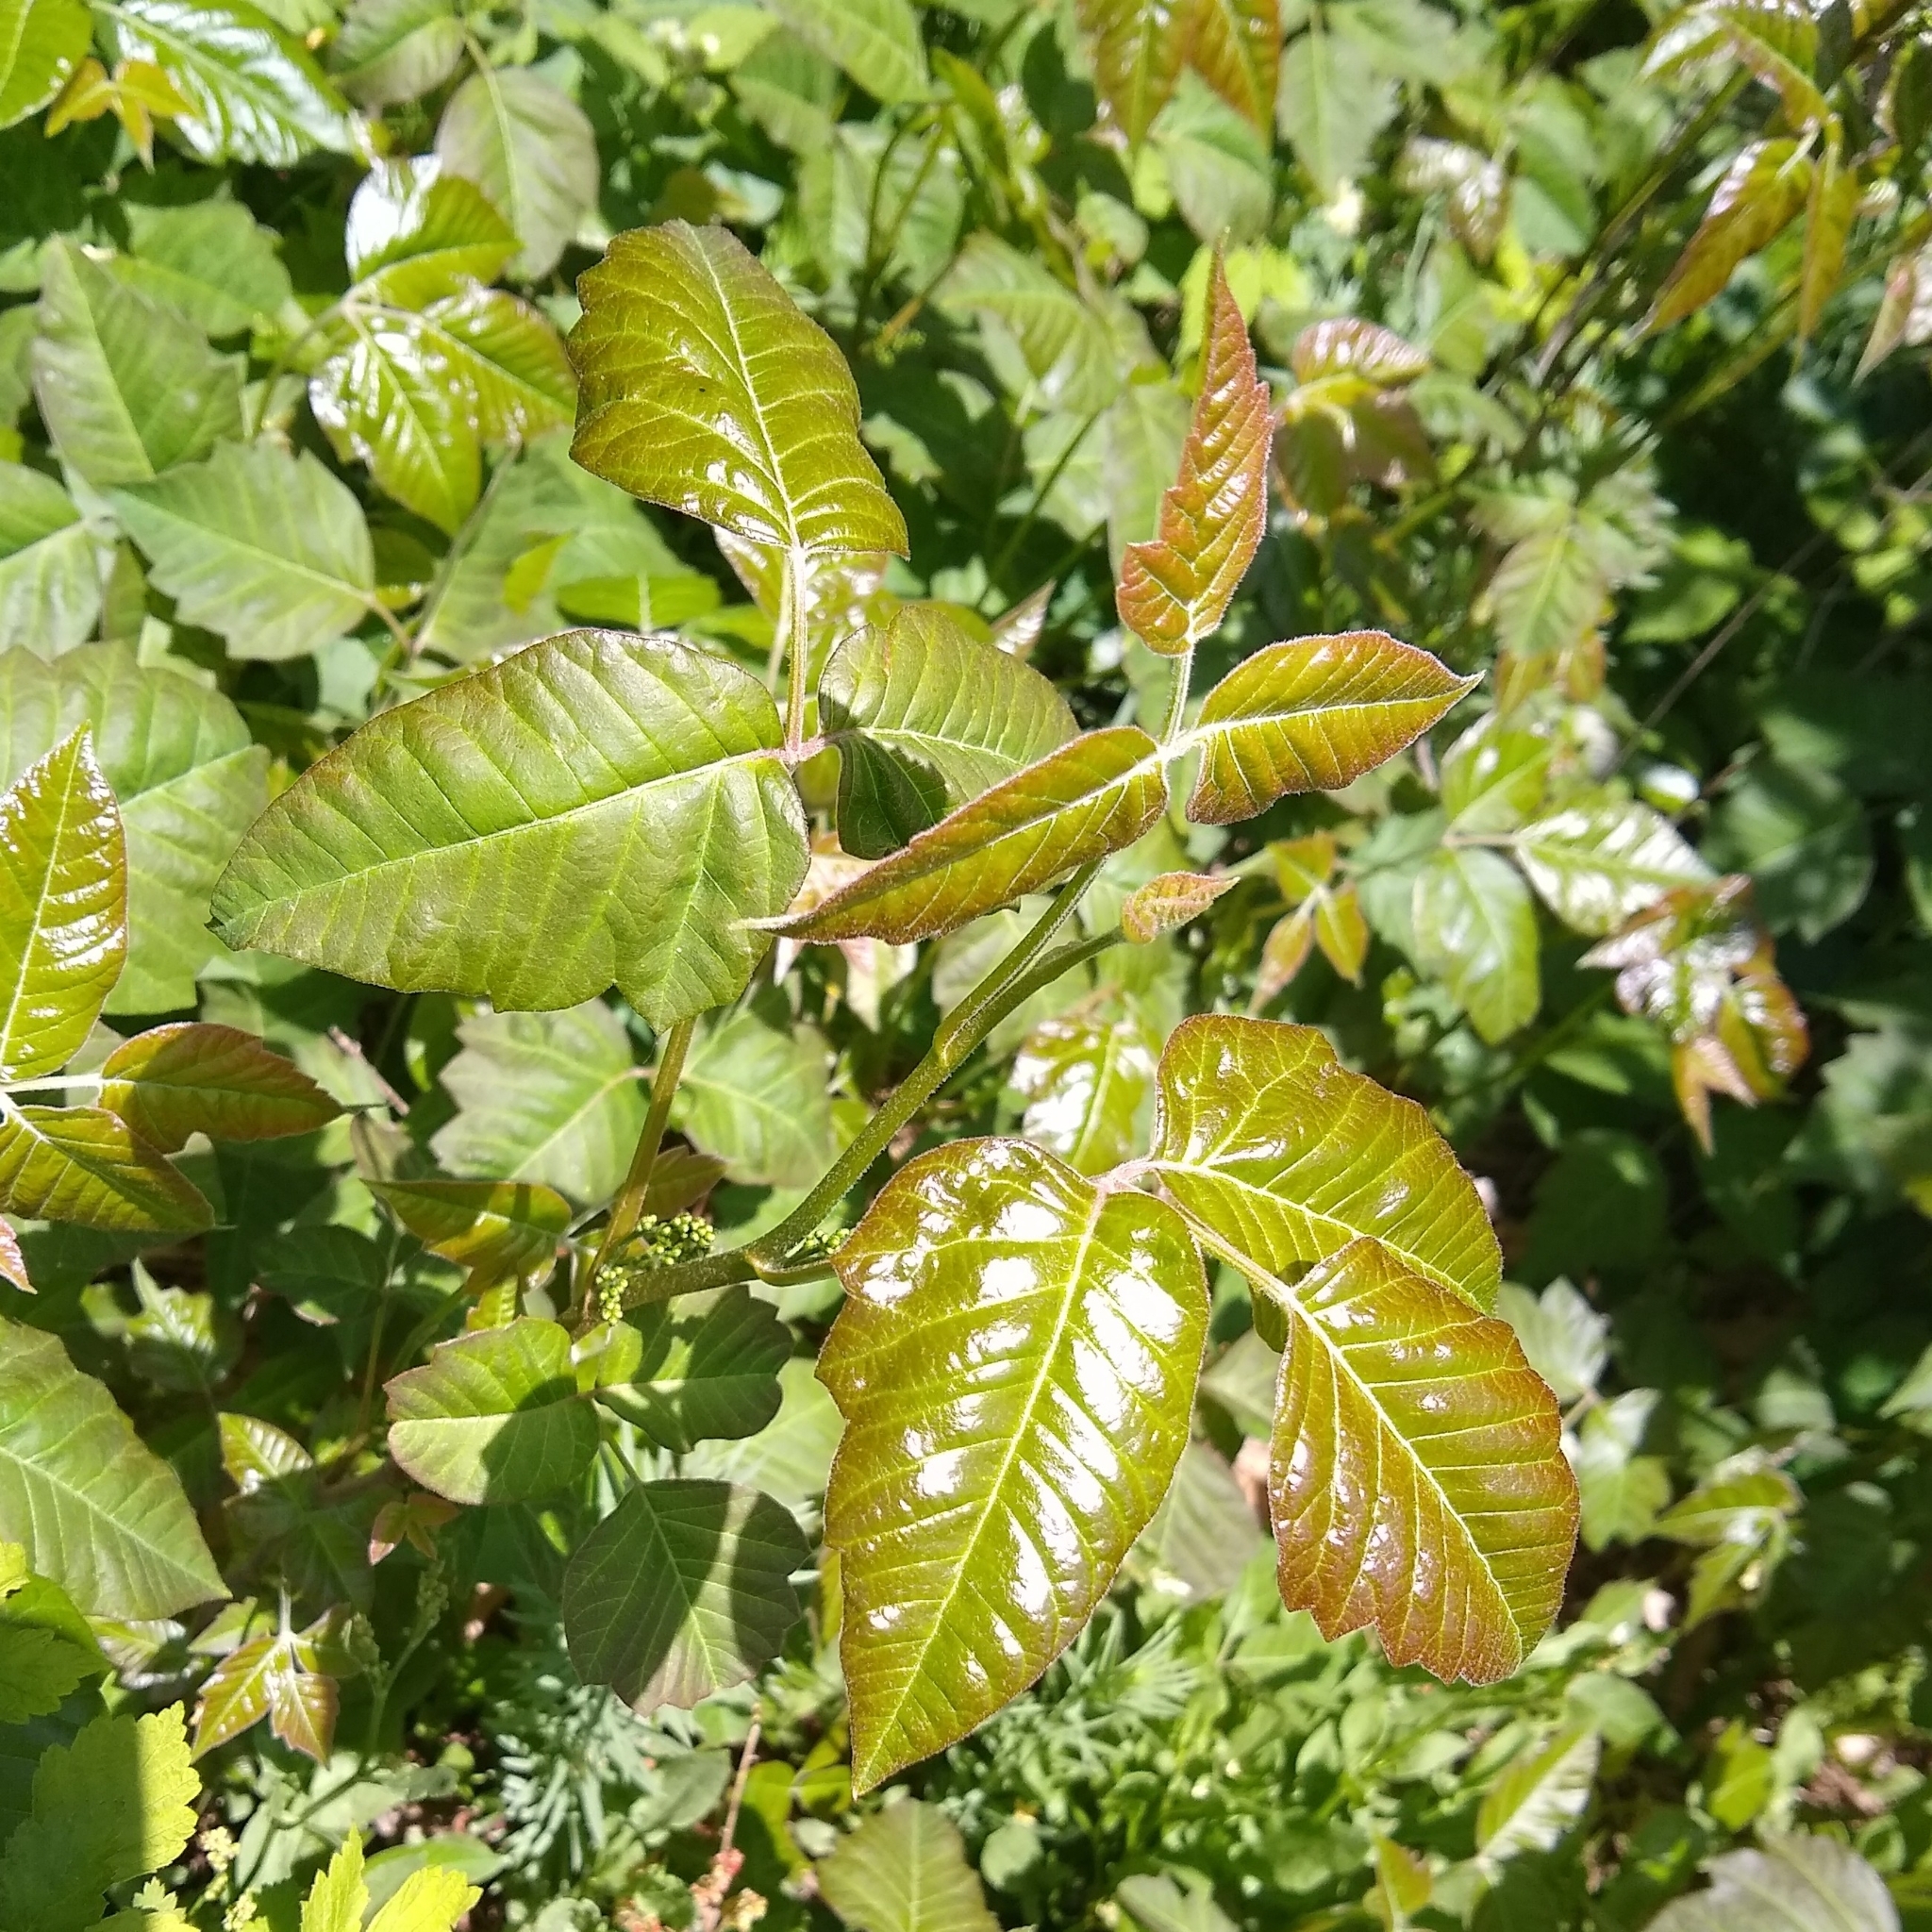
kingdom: Plantae
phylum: Tracheophyta
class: Magnoliopsida
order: Sapindales
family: Anacardiaceae
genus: Toxicodendron
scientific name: Toxicodendron radicans
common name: Poison ivy
